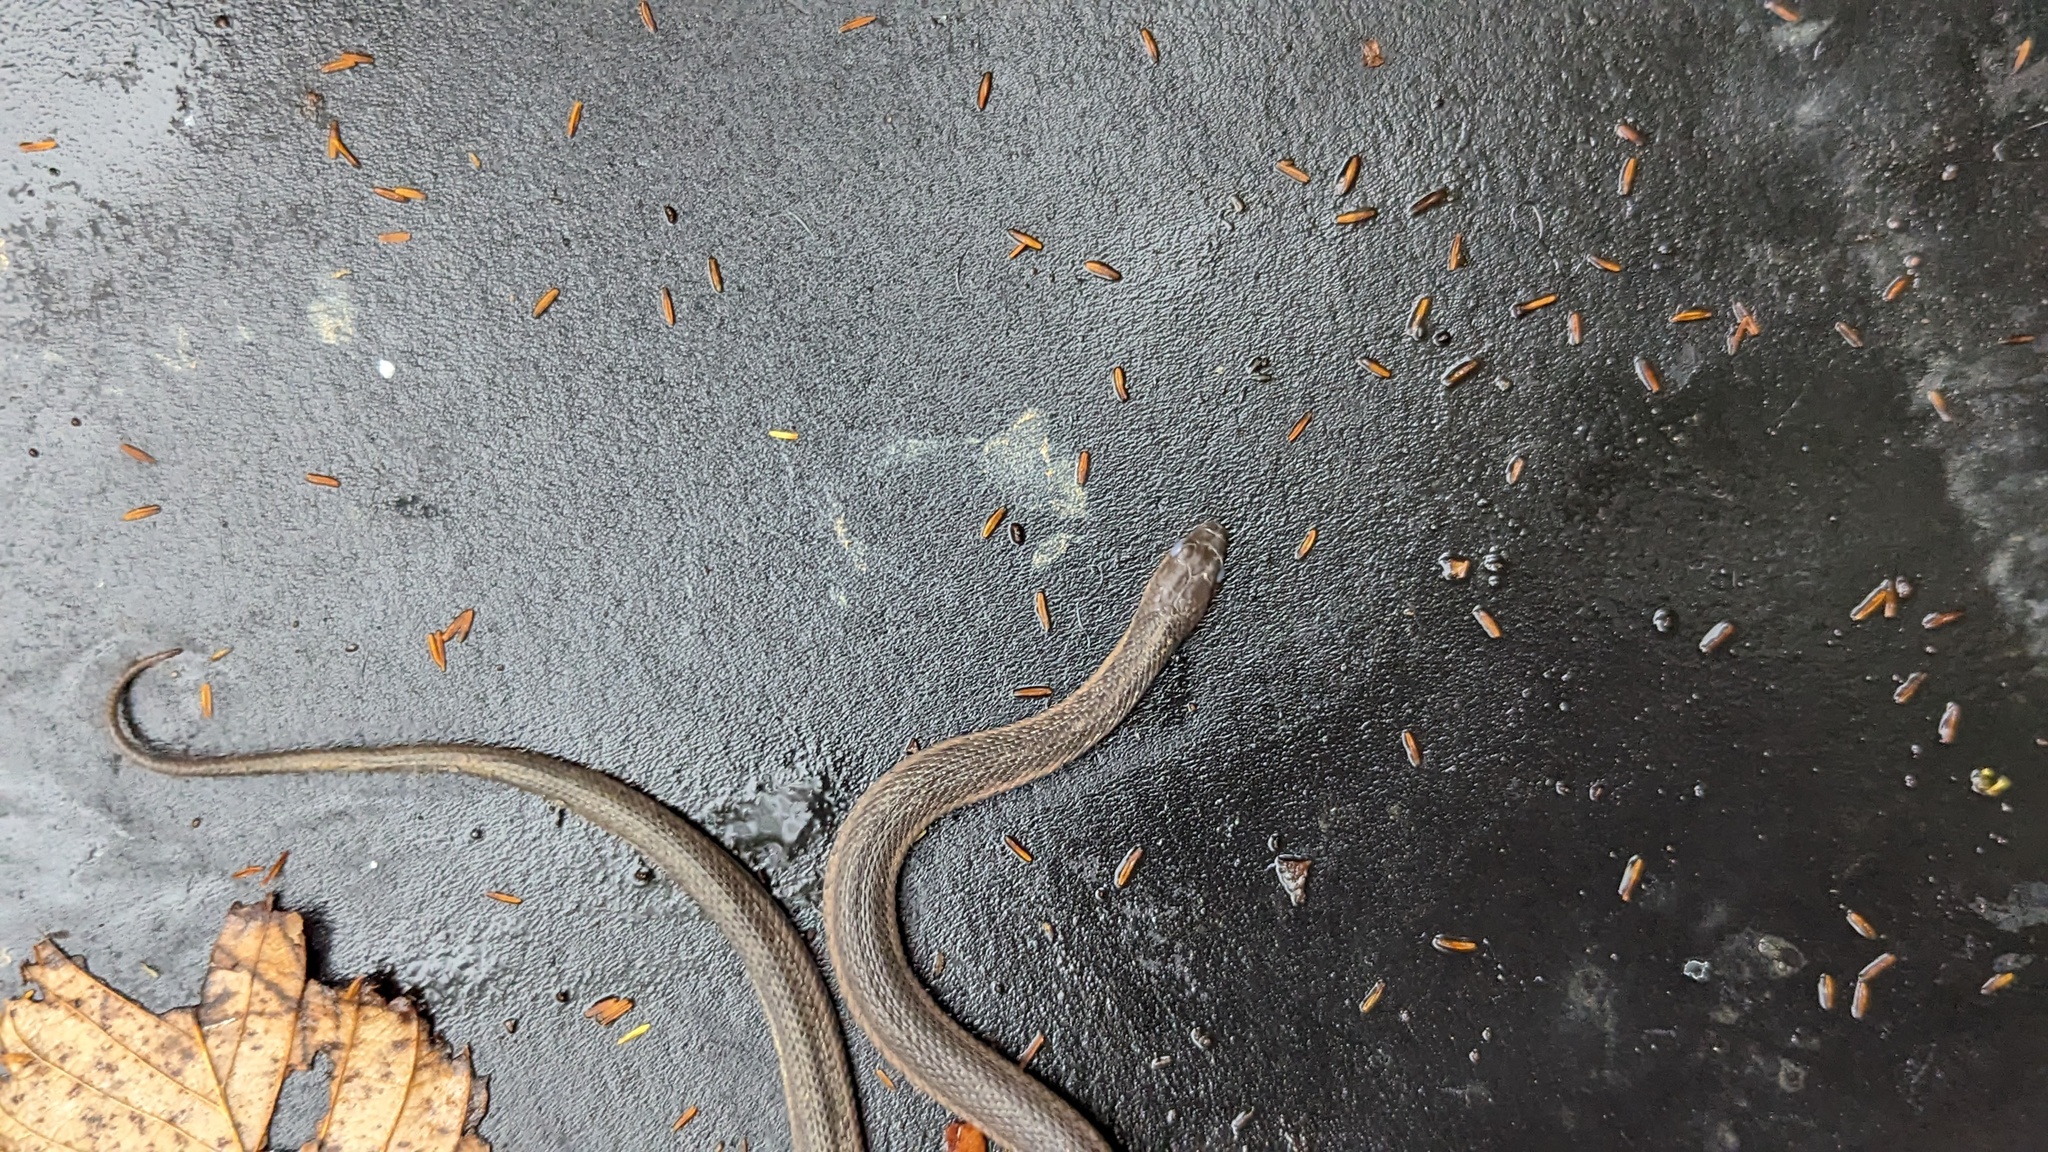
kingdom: Animalia
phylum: Chordata
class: Squamata
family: Colubridae
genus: Thamnophis
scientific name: Thamnophis sirtalis
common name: Common garter snake
